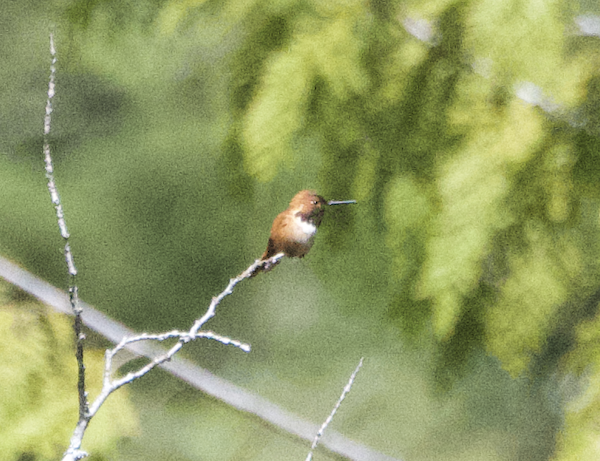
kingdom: Animalia
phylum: Chordata
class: Aves
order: Apodiformes
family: Trochilidae
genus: Selasphorus
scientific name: Selasphorus rufus
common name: Rufous hummingbird
